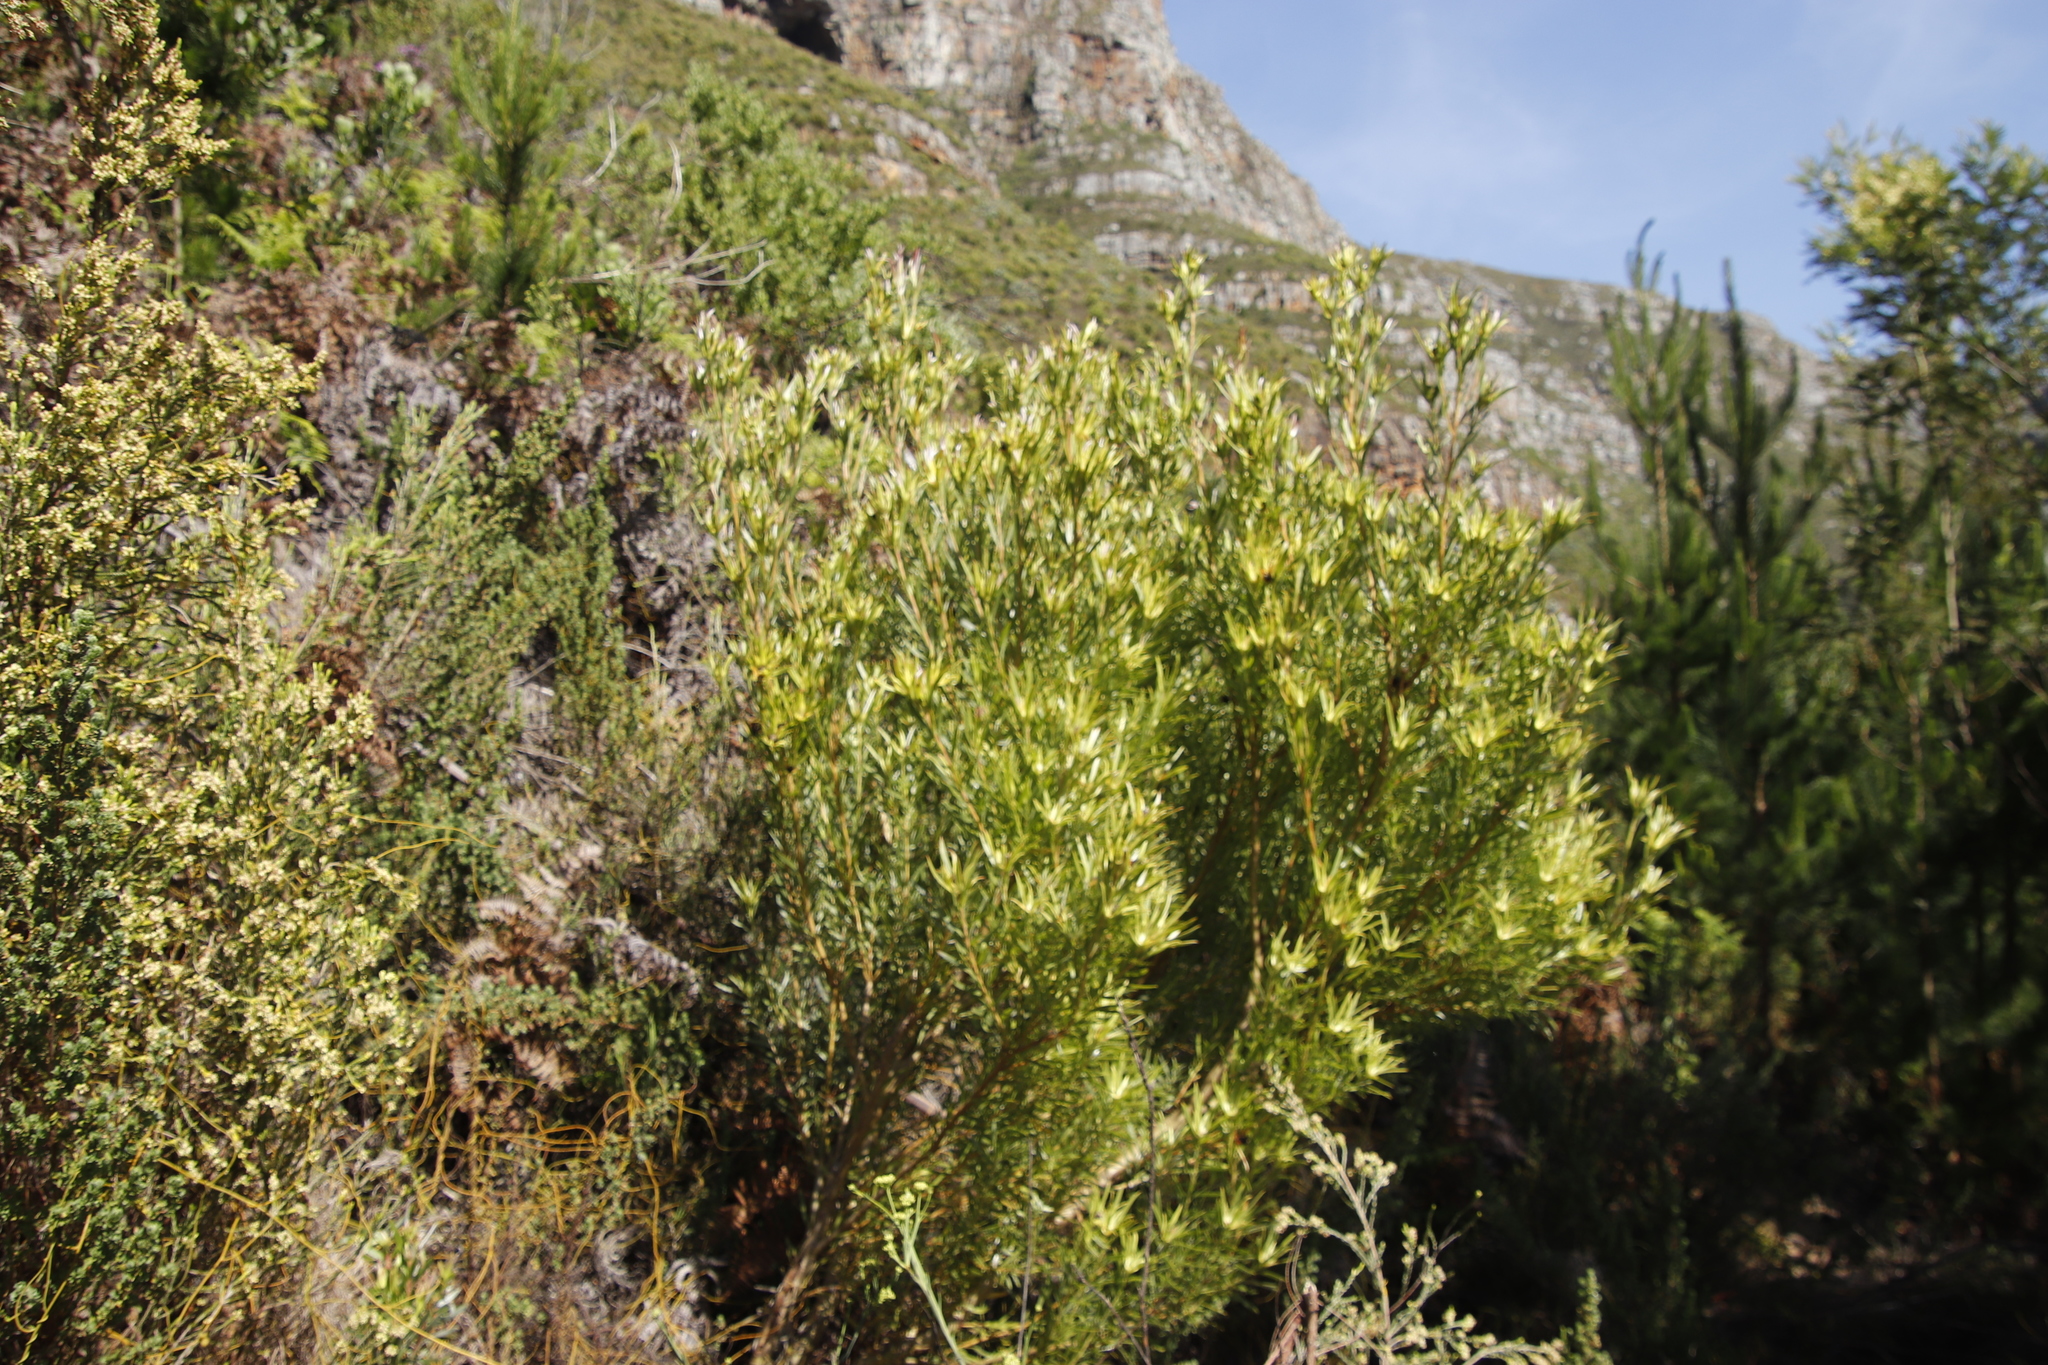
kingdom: Plantae
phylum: Tracheophyta
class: Magnoliopsida
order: Proteales
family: Proteaceae
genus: Leucadendron
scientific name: Leucadendron xanthoconus
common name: Sickle-leaf conebush
